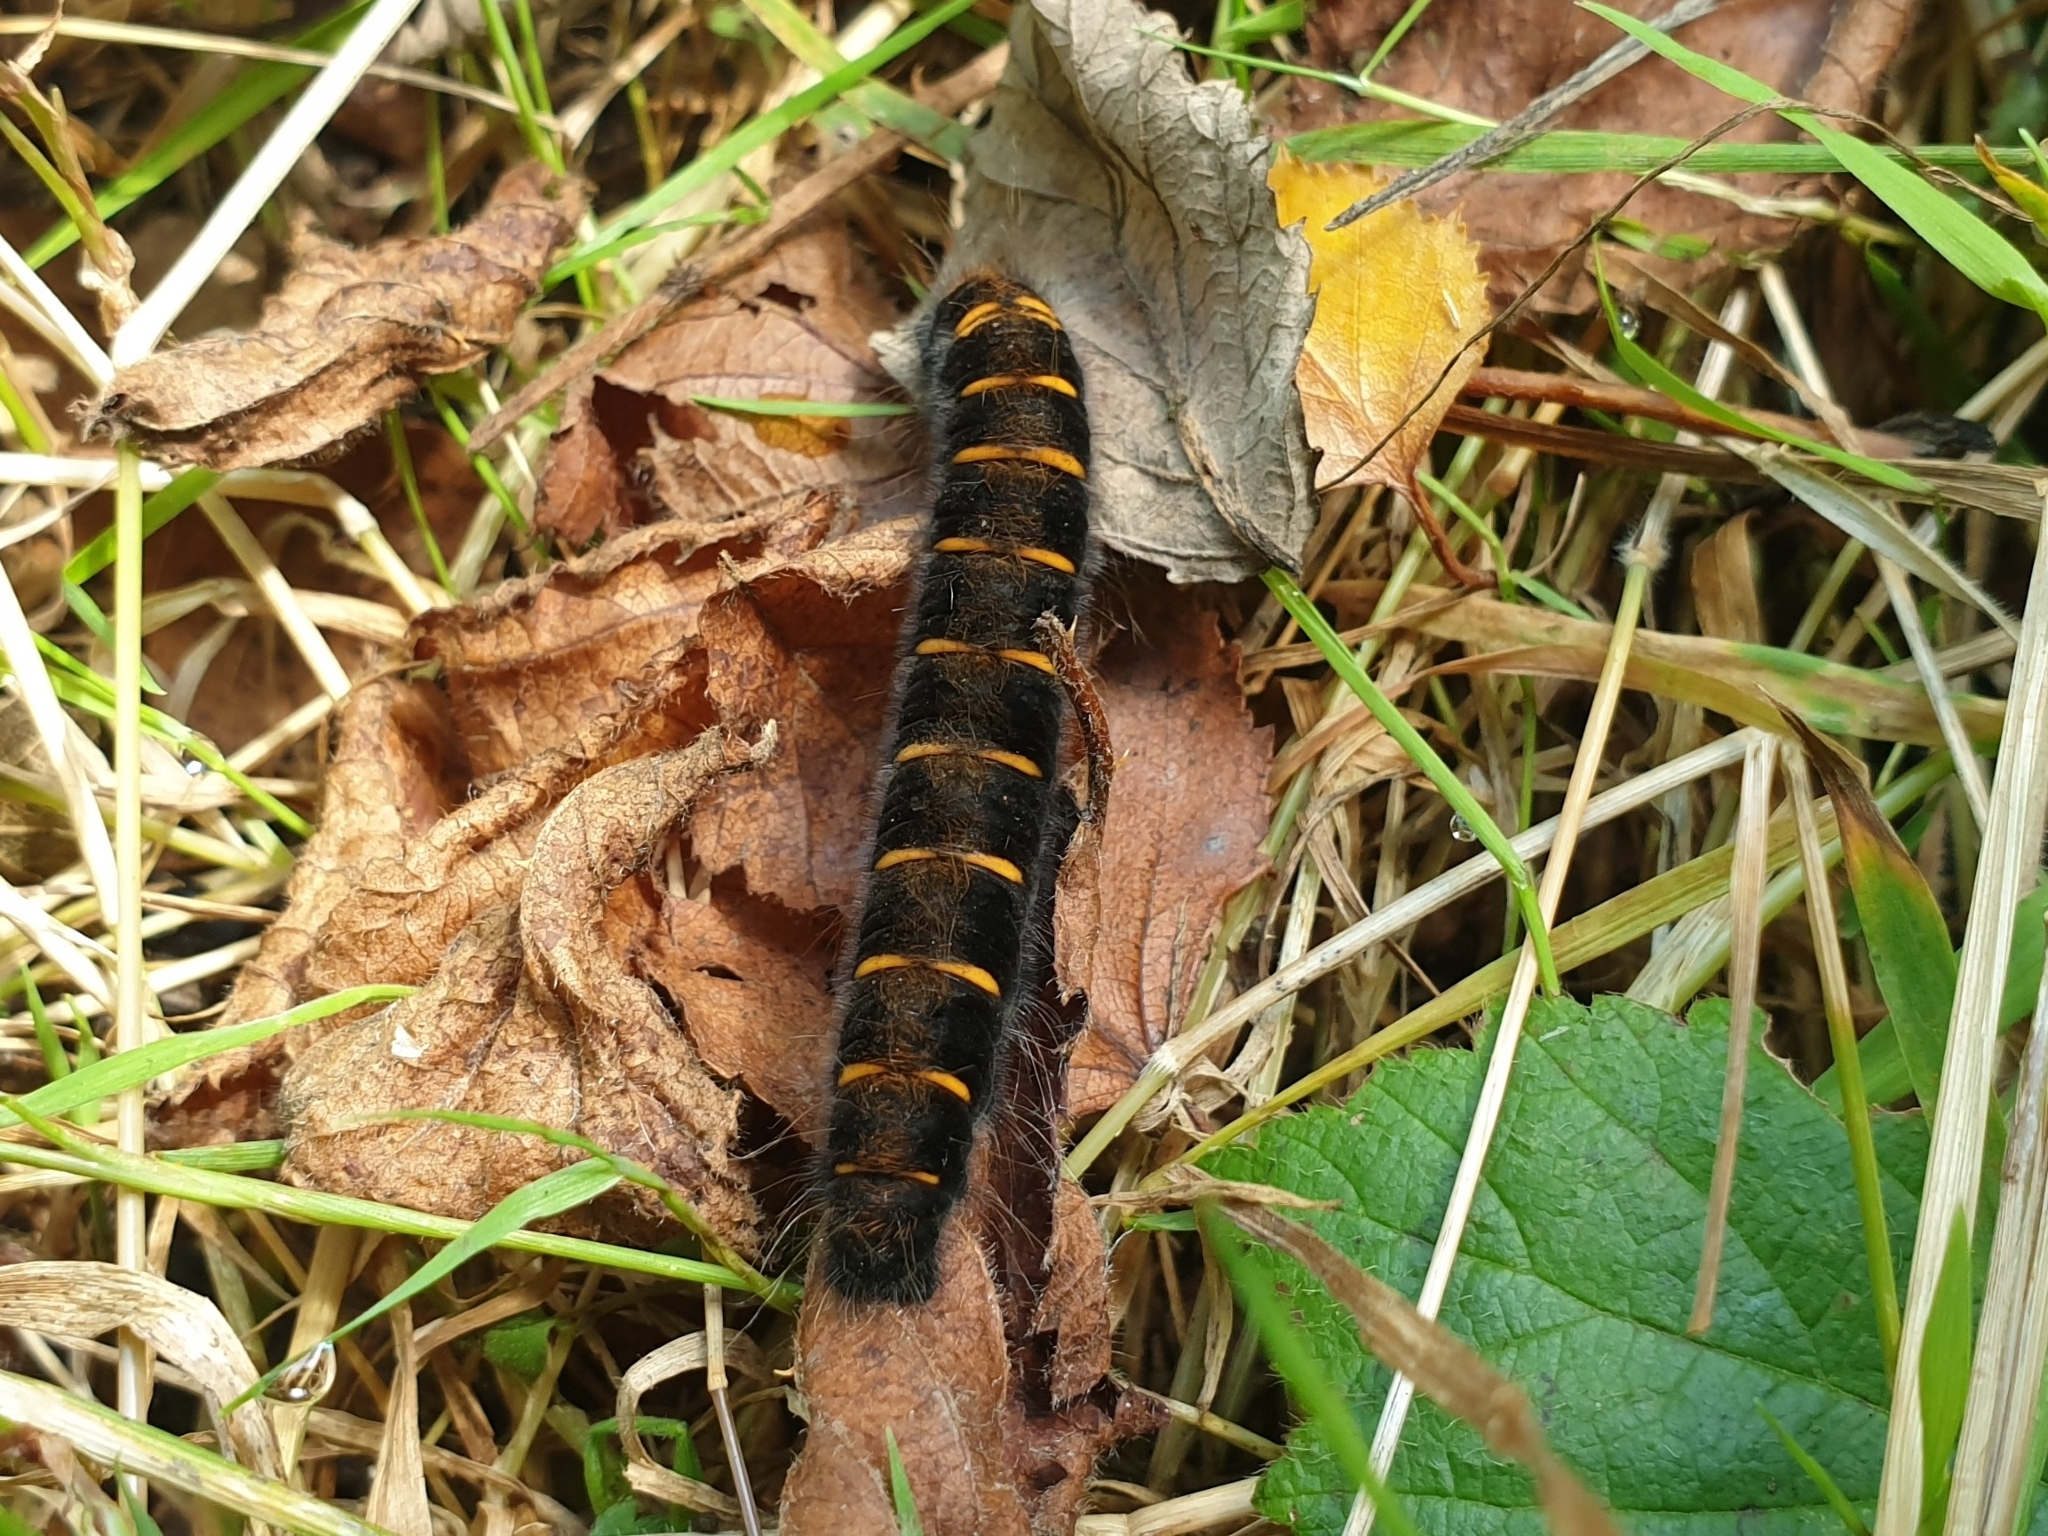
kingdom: Animalia
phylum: Arthropoda
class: Insecta
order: Lepidoptera
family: Lasiocampidae
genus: Macrothylacia
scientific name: Macrothylacia rubi
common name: Fox moth
